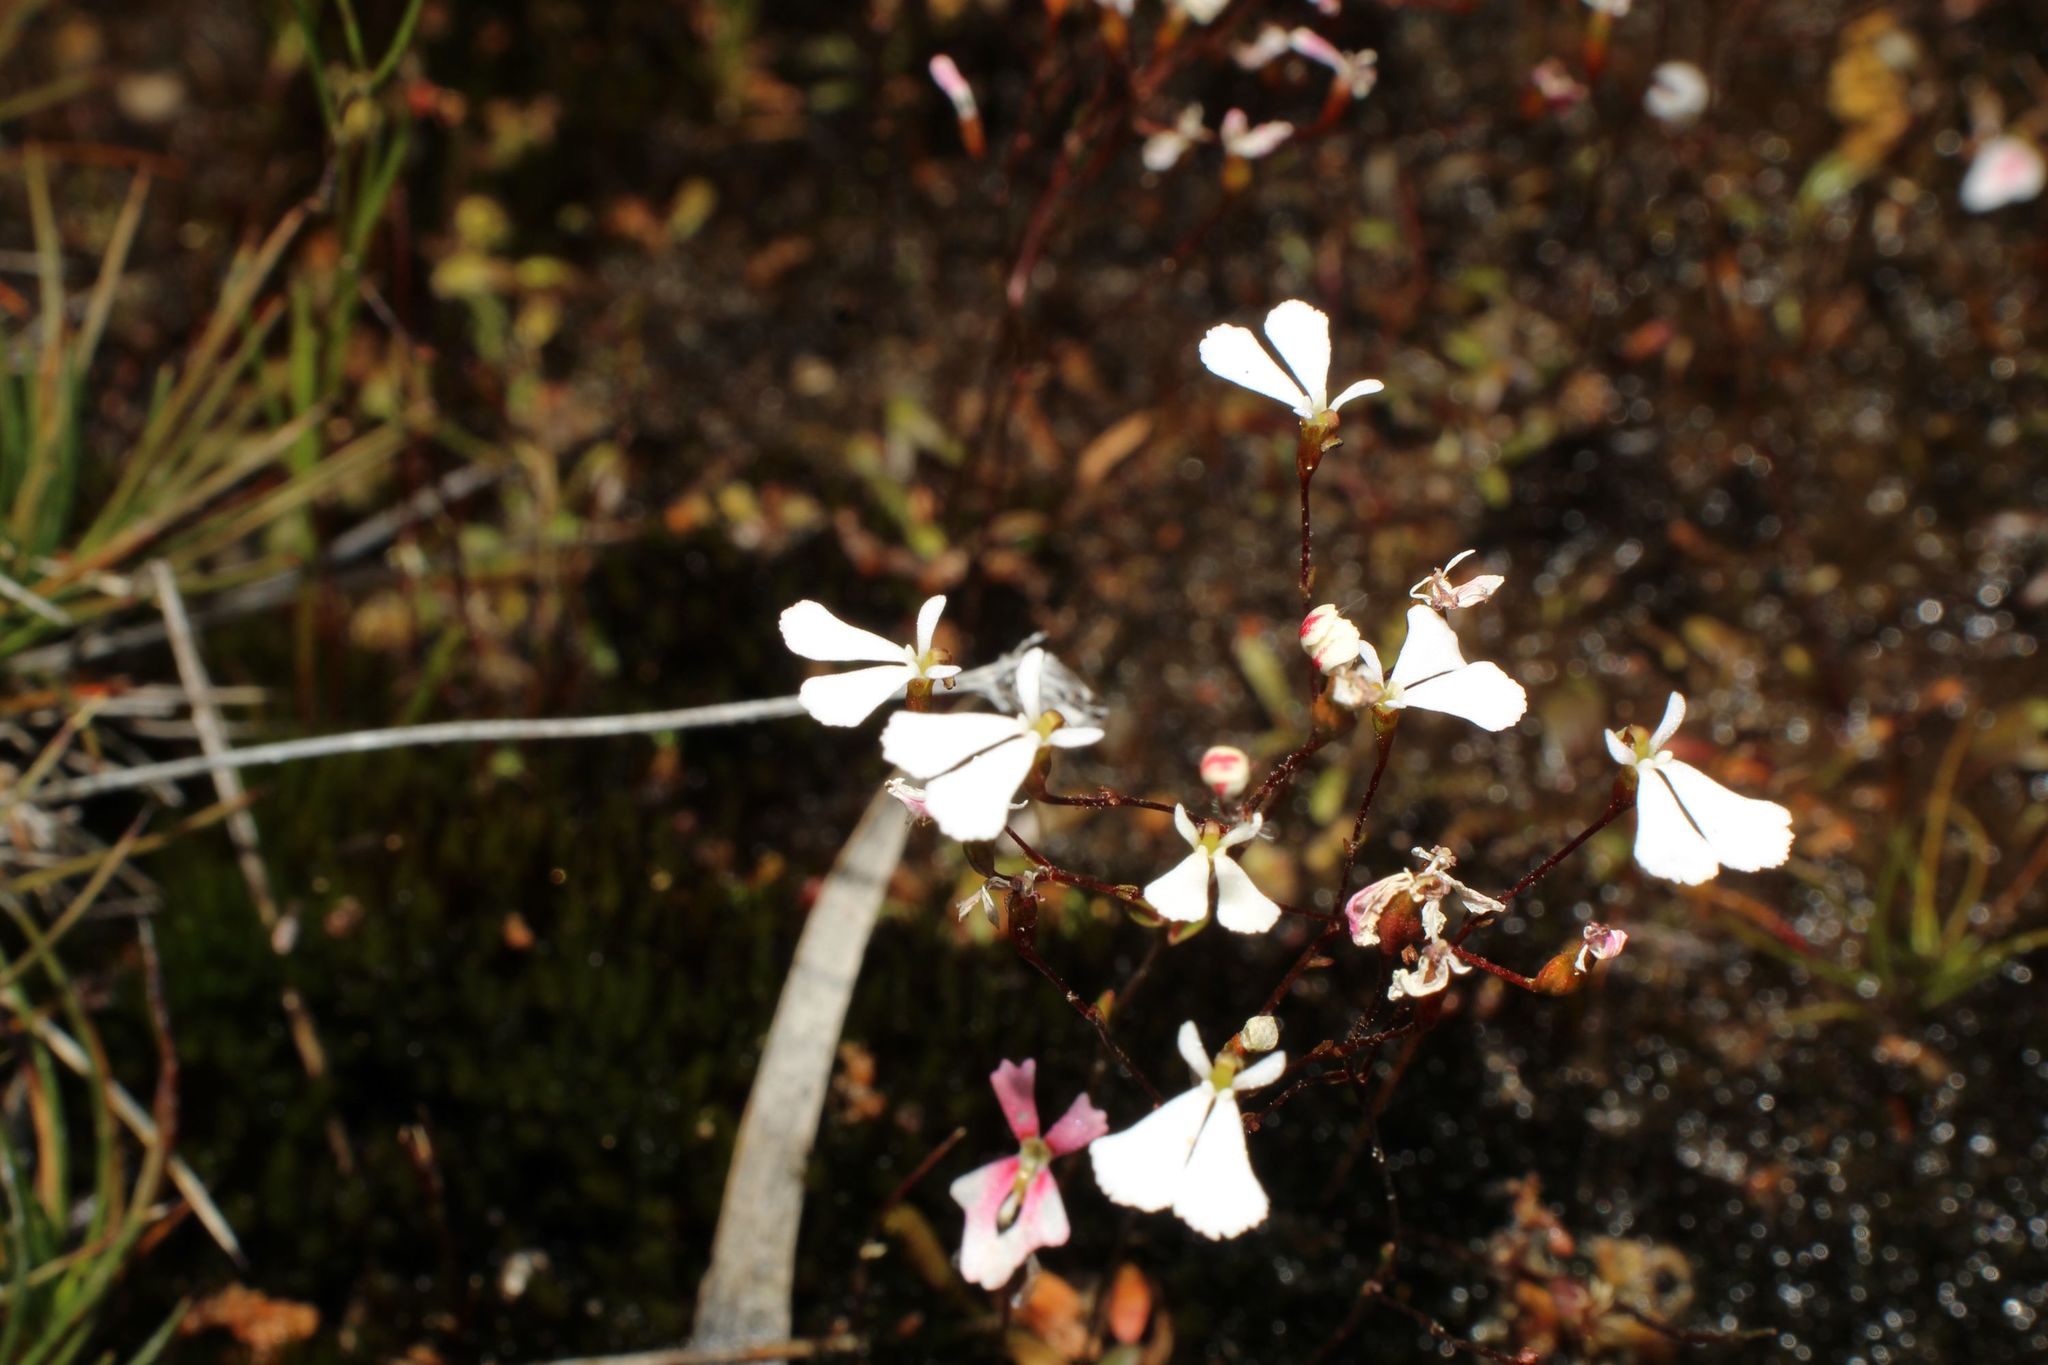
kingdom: Plantae
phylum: Tracheophyta
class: Magnoliopsida
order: Asterales
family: Stylidiaceae
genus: Stylidium
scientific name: Stylidium obtusatum
